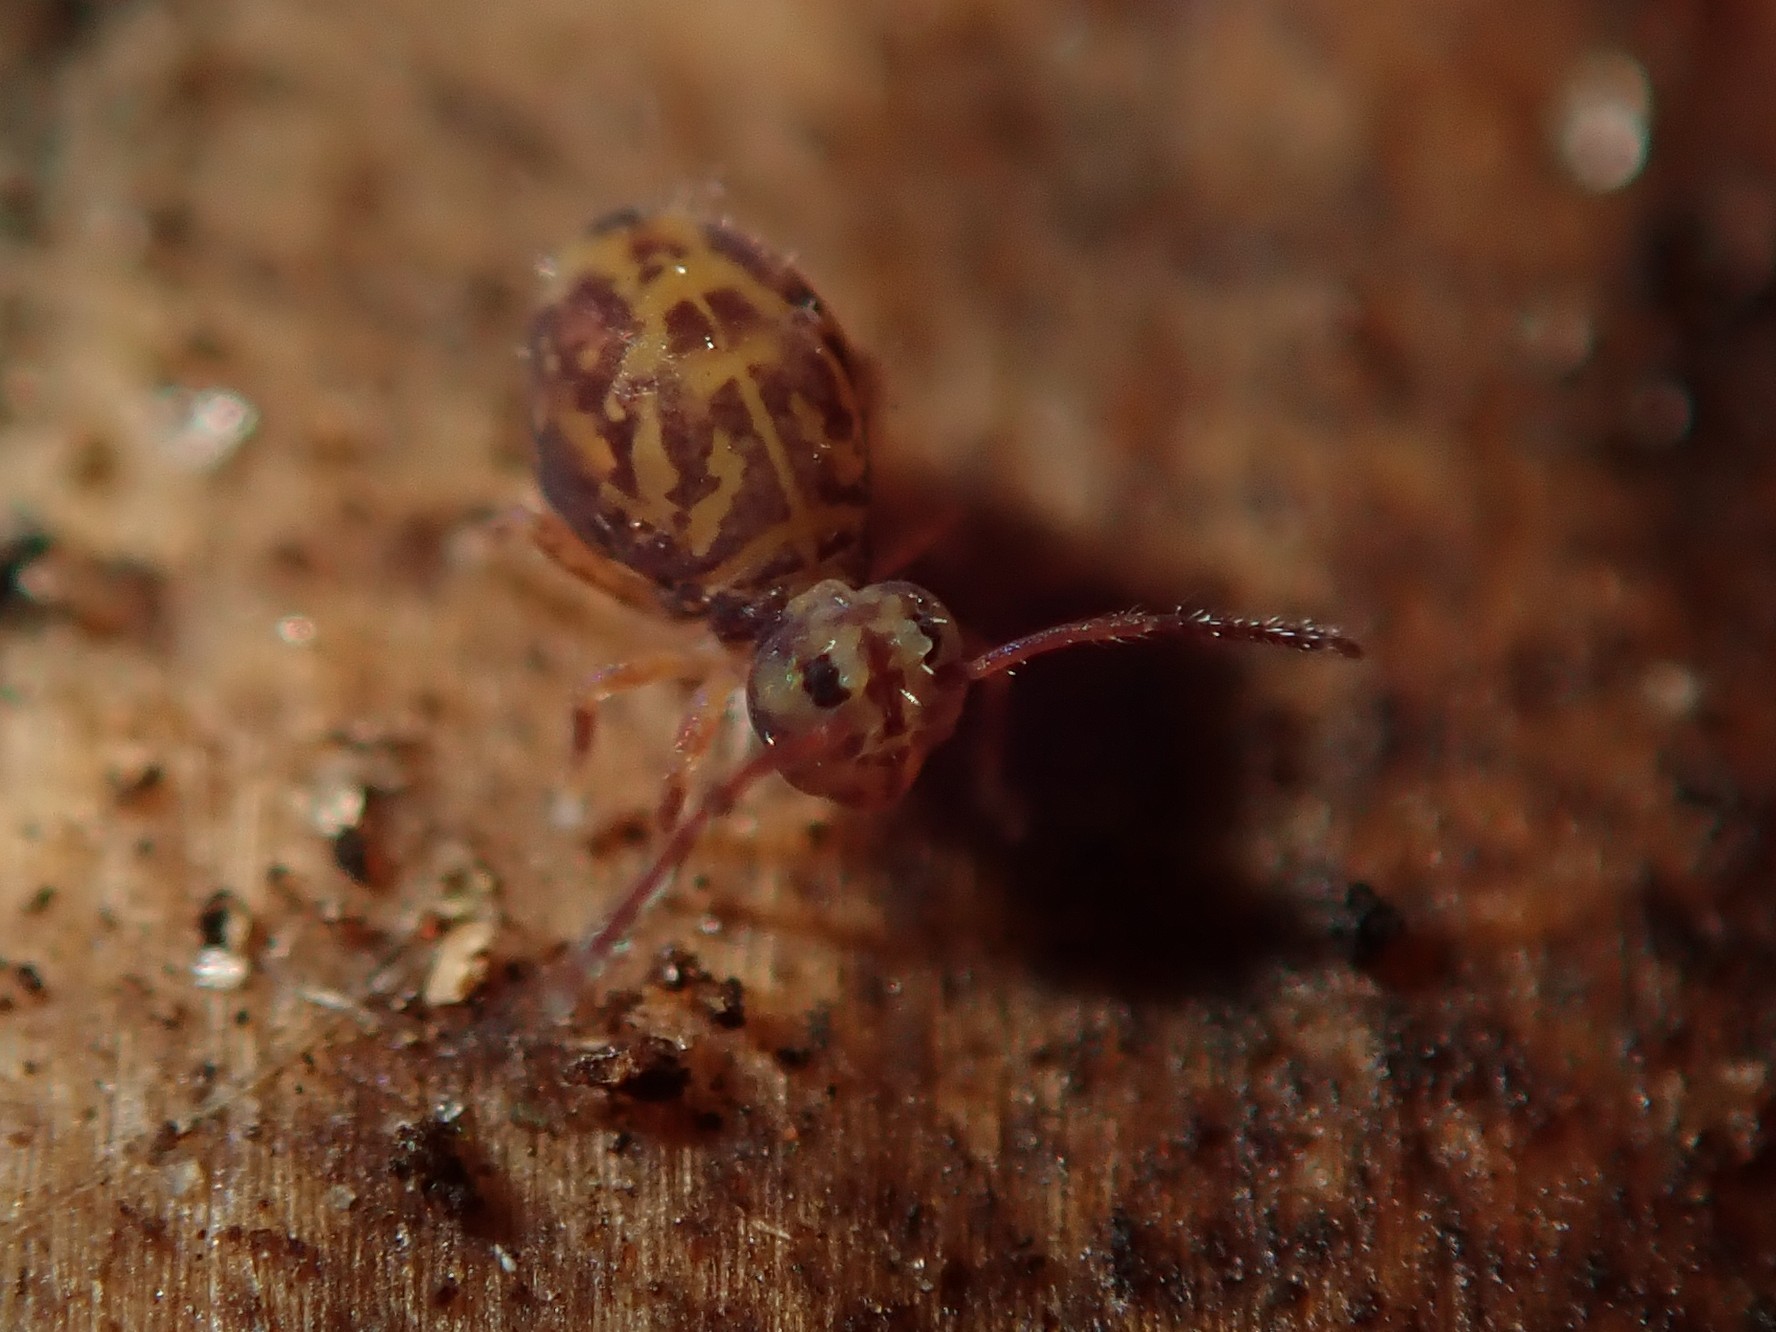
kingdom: Animalia
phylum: Arthropoda
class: Collembola
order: Symphypleona
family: Dicyrtomidae
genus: Dicyrtomina
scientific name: Dicyrtomina ornata
